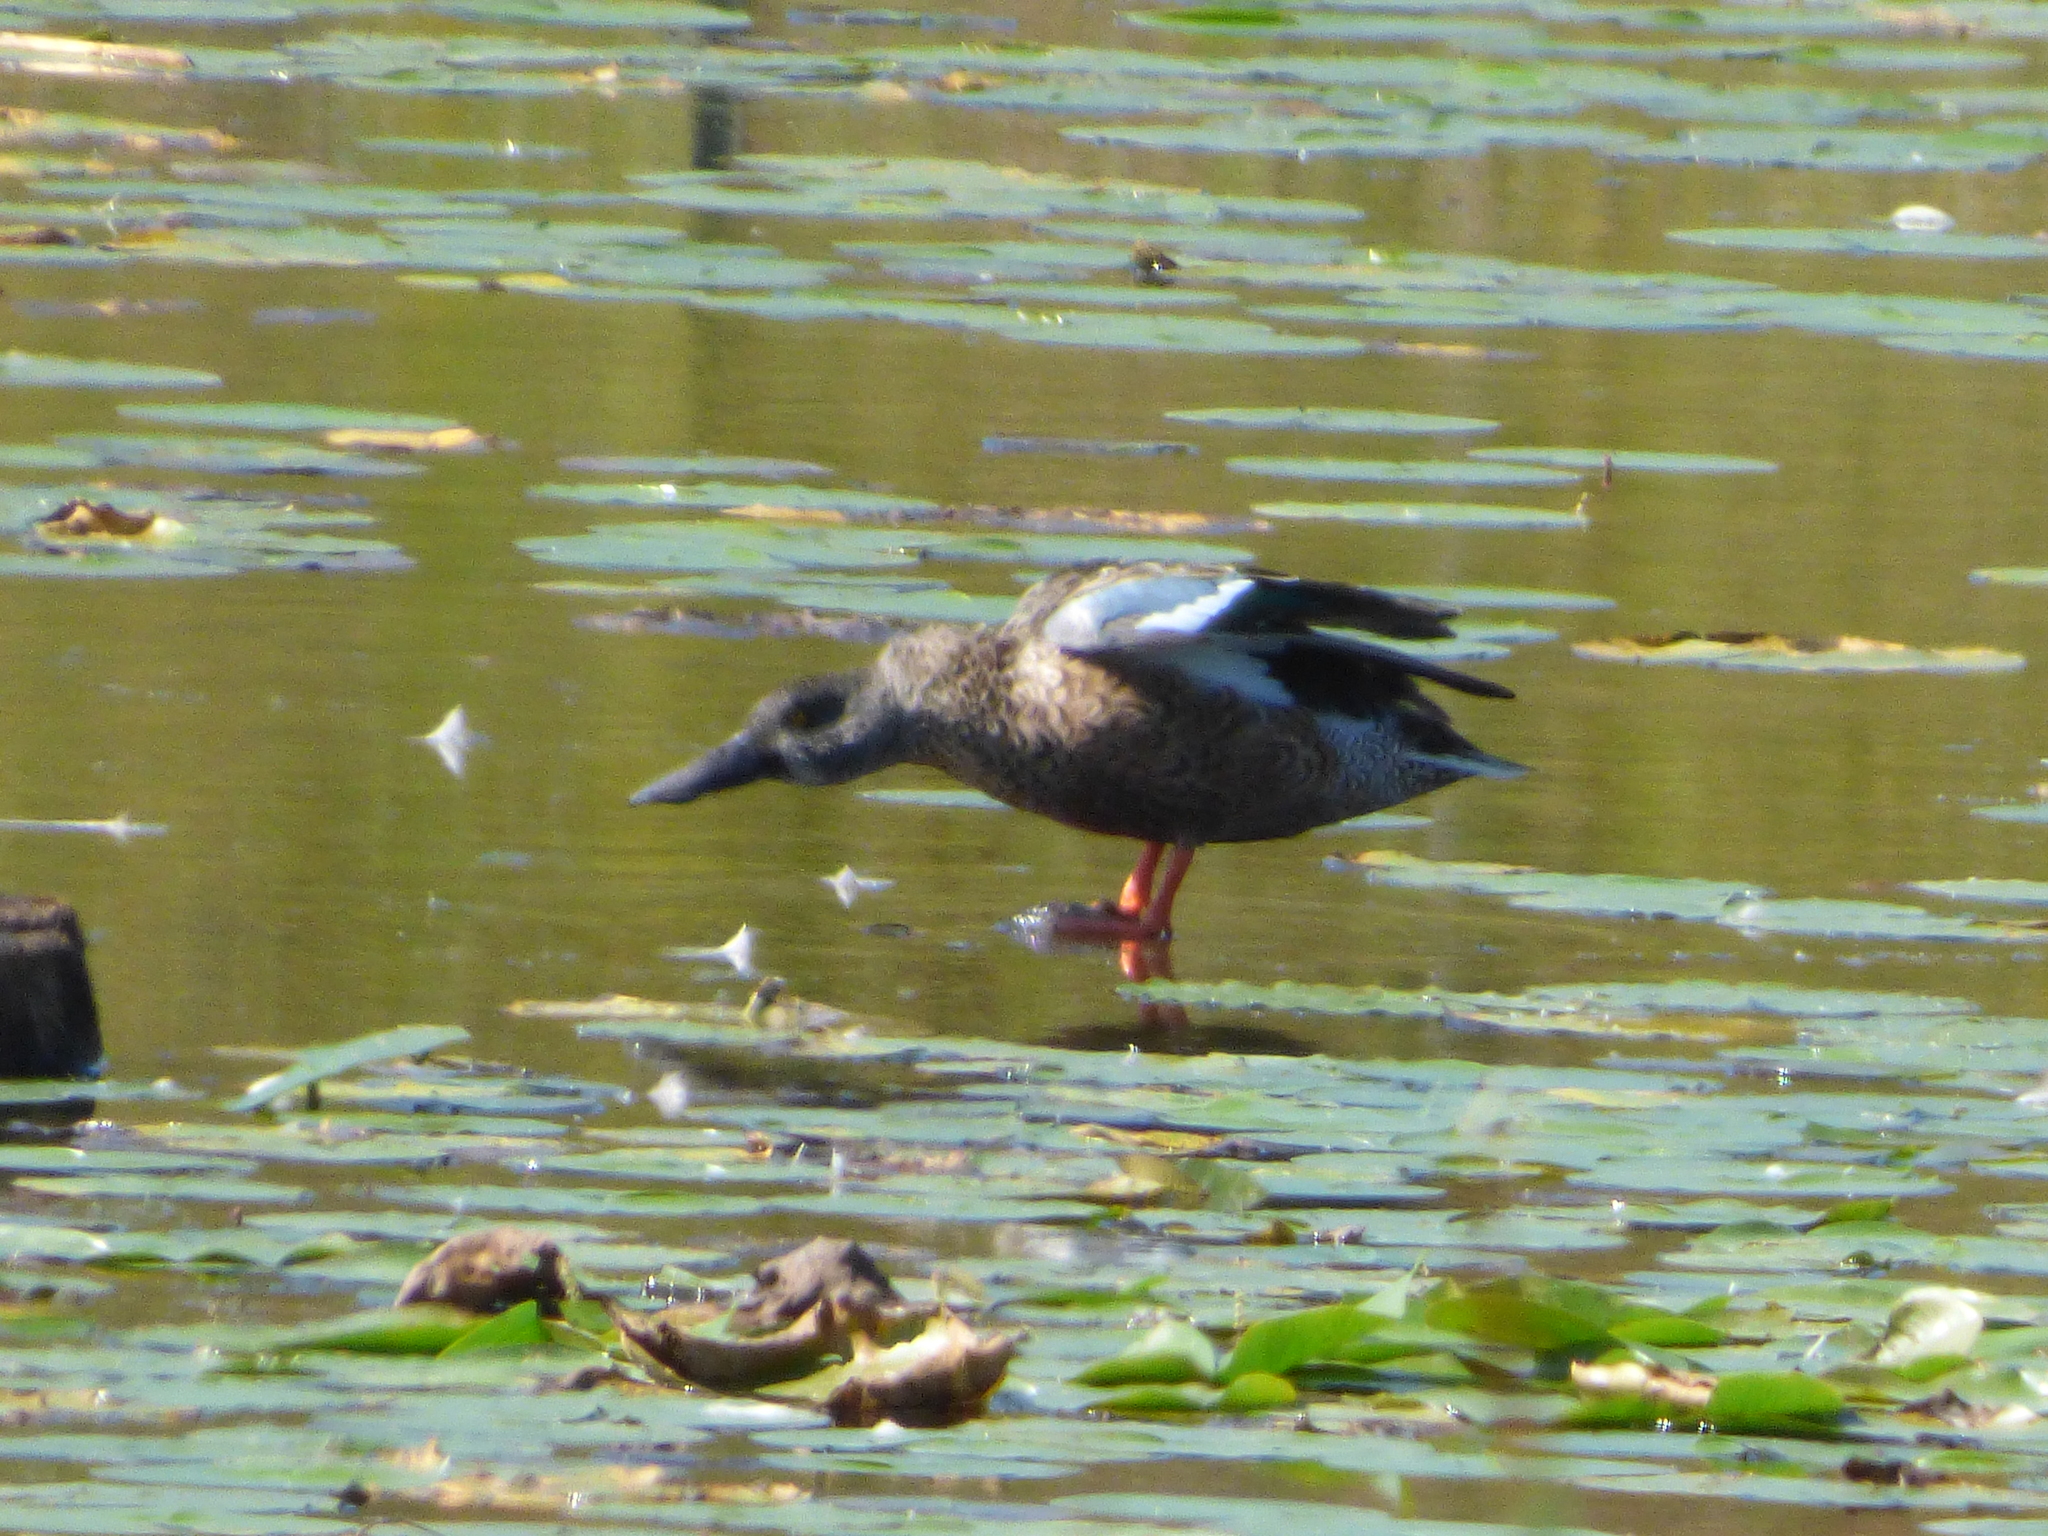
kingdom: Animalia
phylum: Chordata
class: Aves
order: Anseriformes
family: Anatidae
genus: Spatula
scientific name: Spatula clypeata
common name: Northern shoveler
